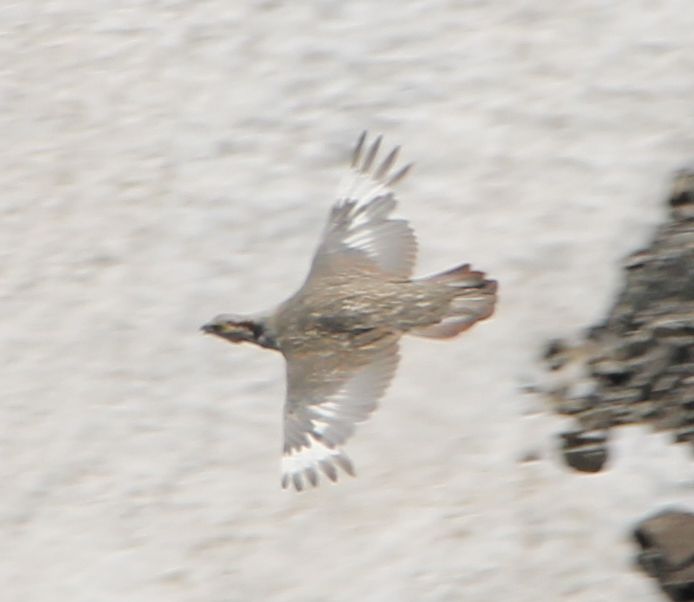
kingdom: Animalia
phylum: Chordata
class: Aves
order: Galliformes
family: Phasianidae
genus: Tetraogallus
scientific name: Tetraogallus himalayensis
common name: Himalayan snowcock
